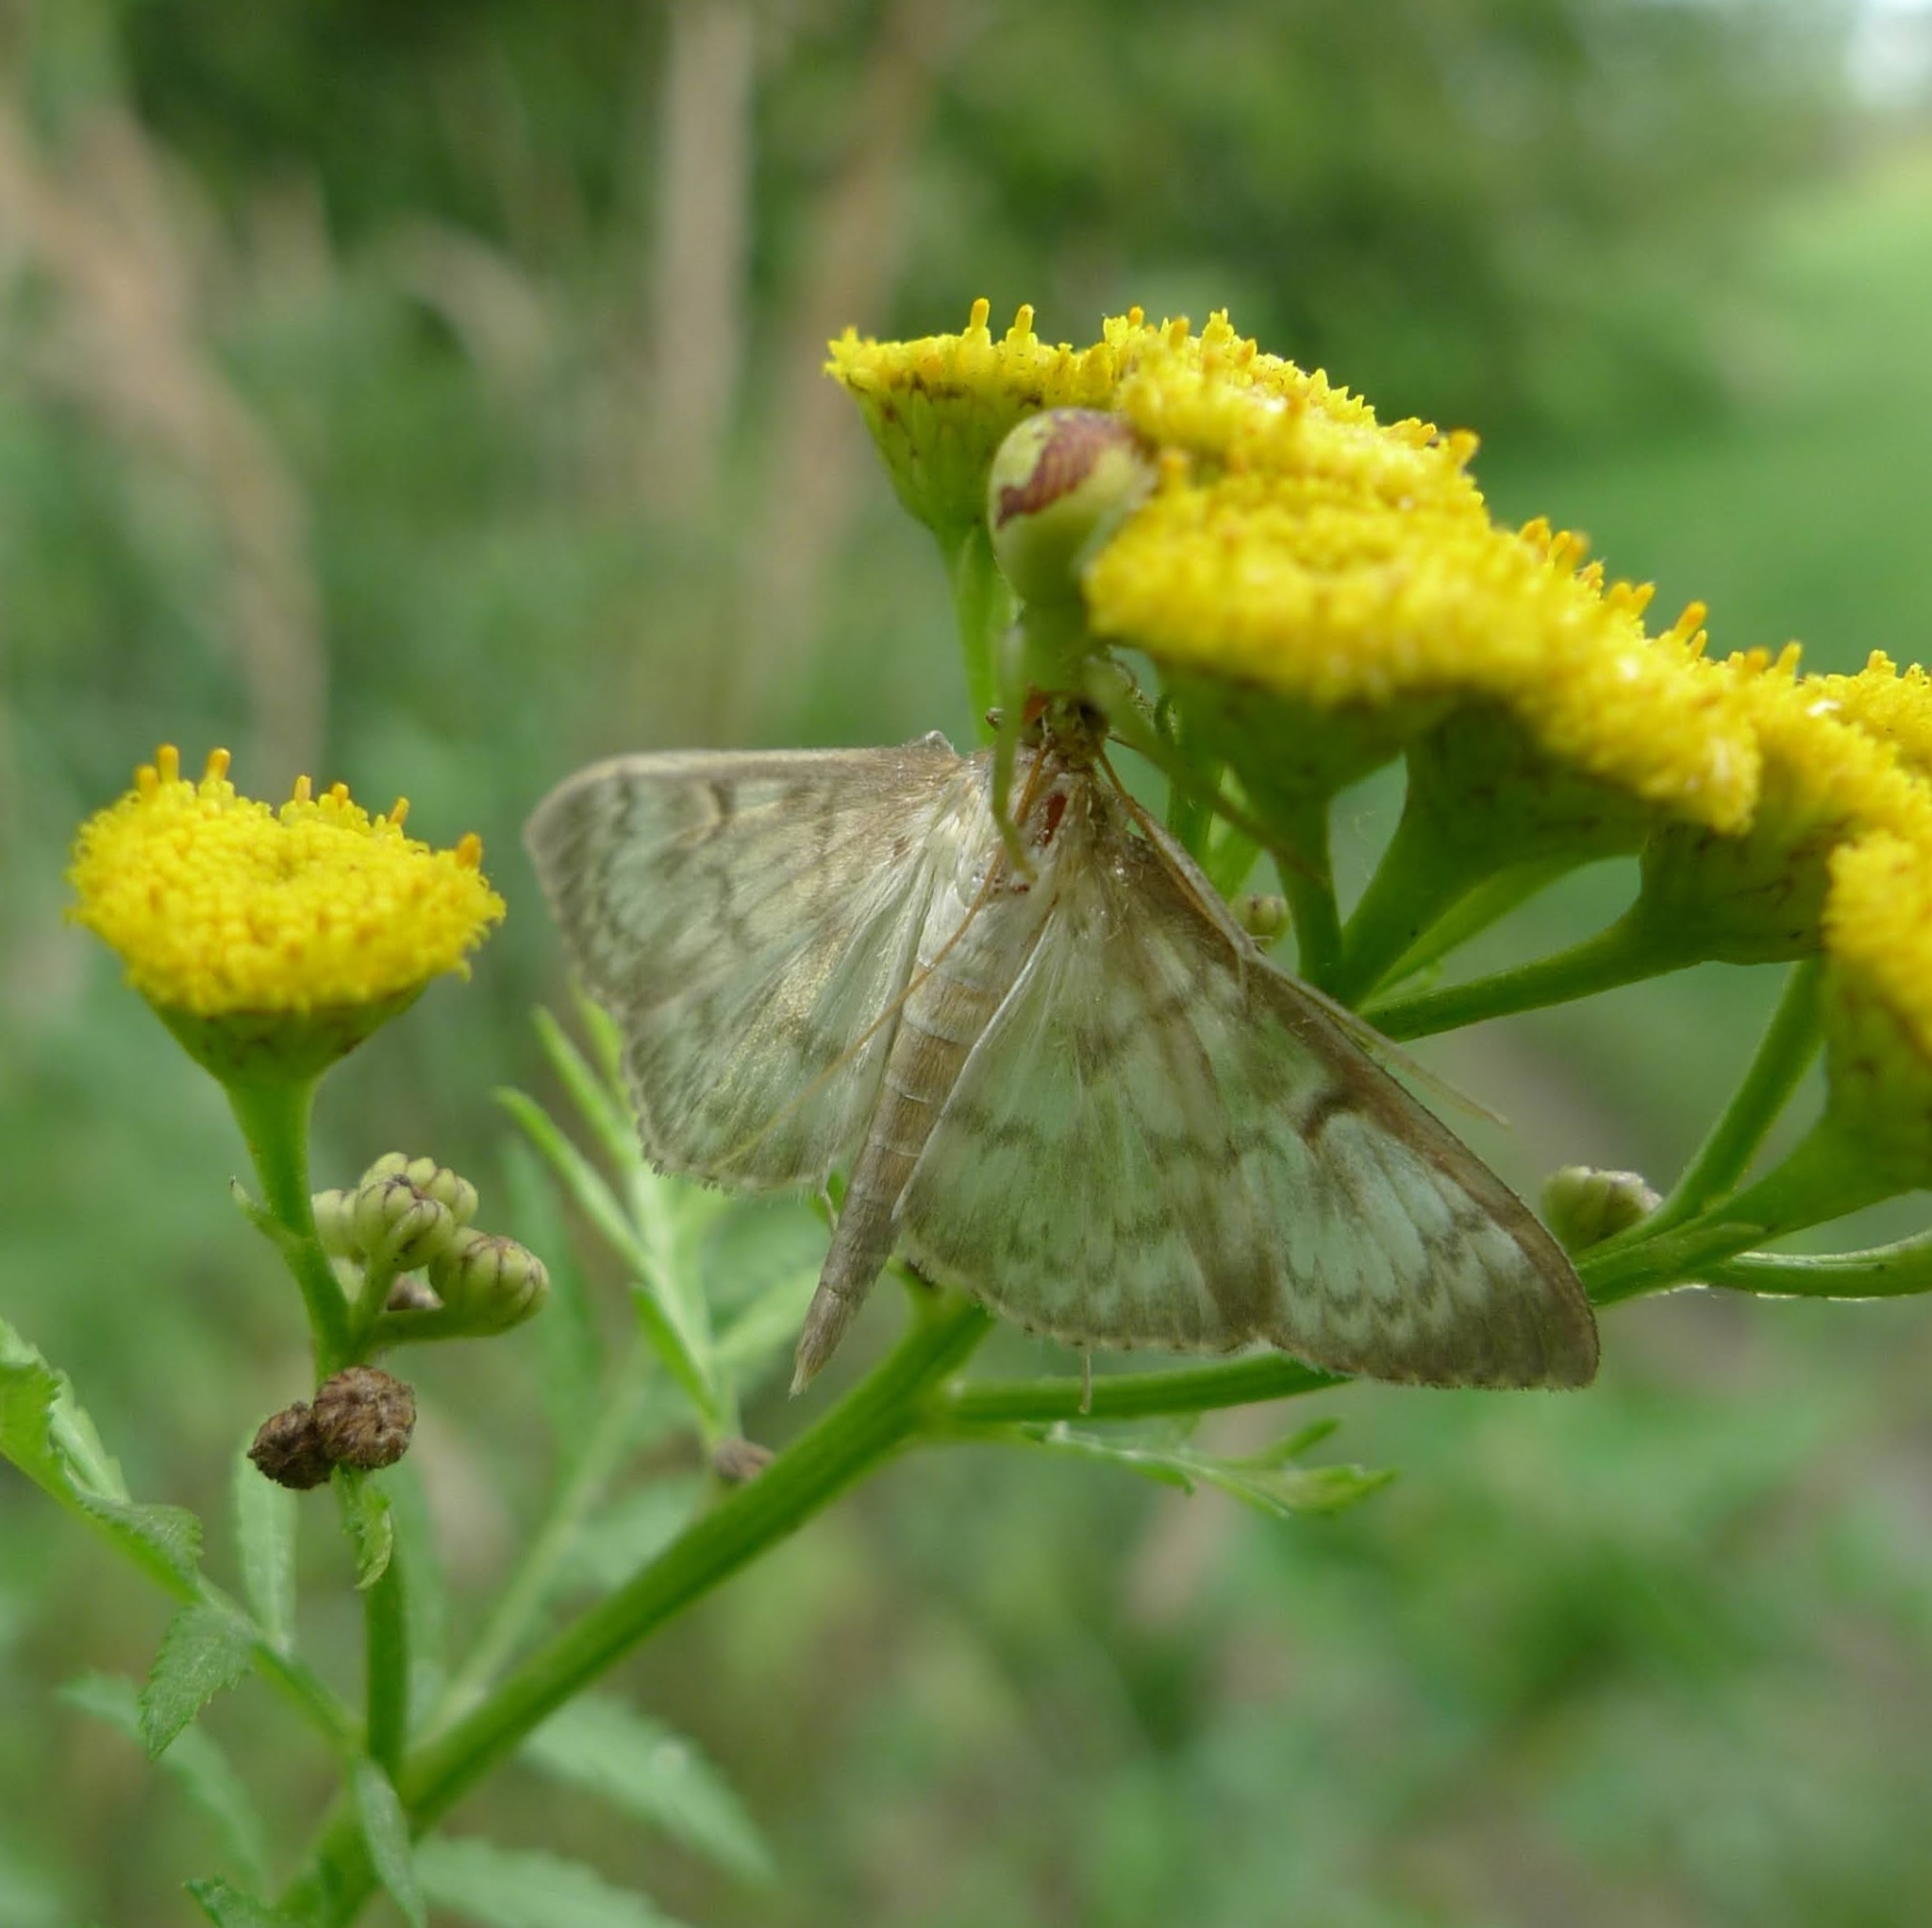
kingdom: Animalia
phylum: Arthropoda
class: Insecta
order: Lepidoptera
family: Crambidae
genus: Patania
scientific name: Patania ruralis
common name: Mother of pearl
